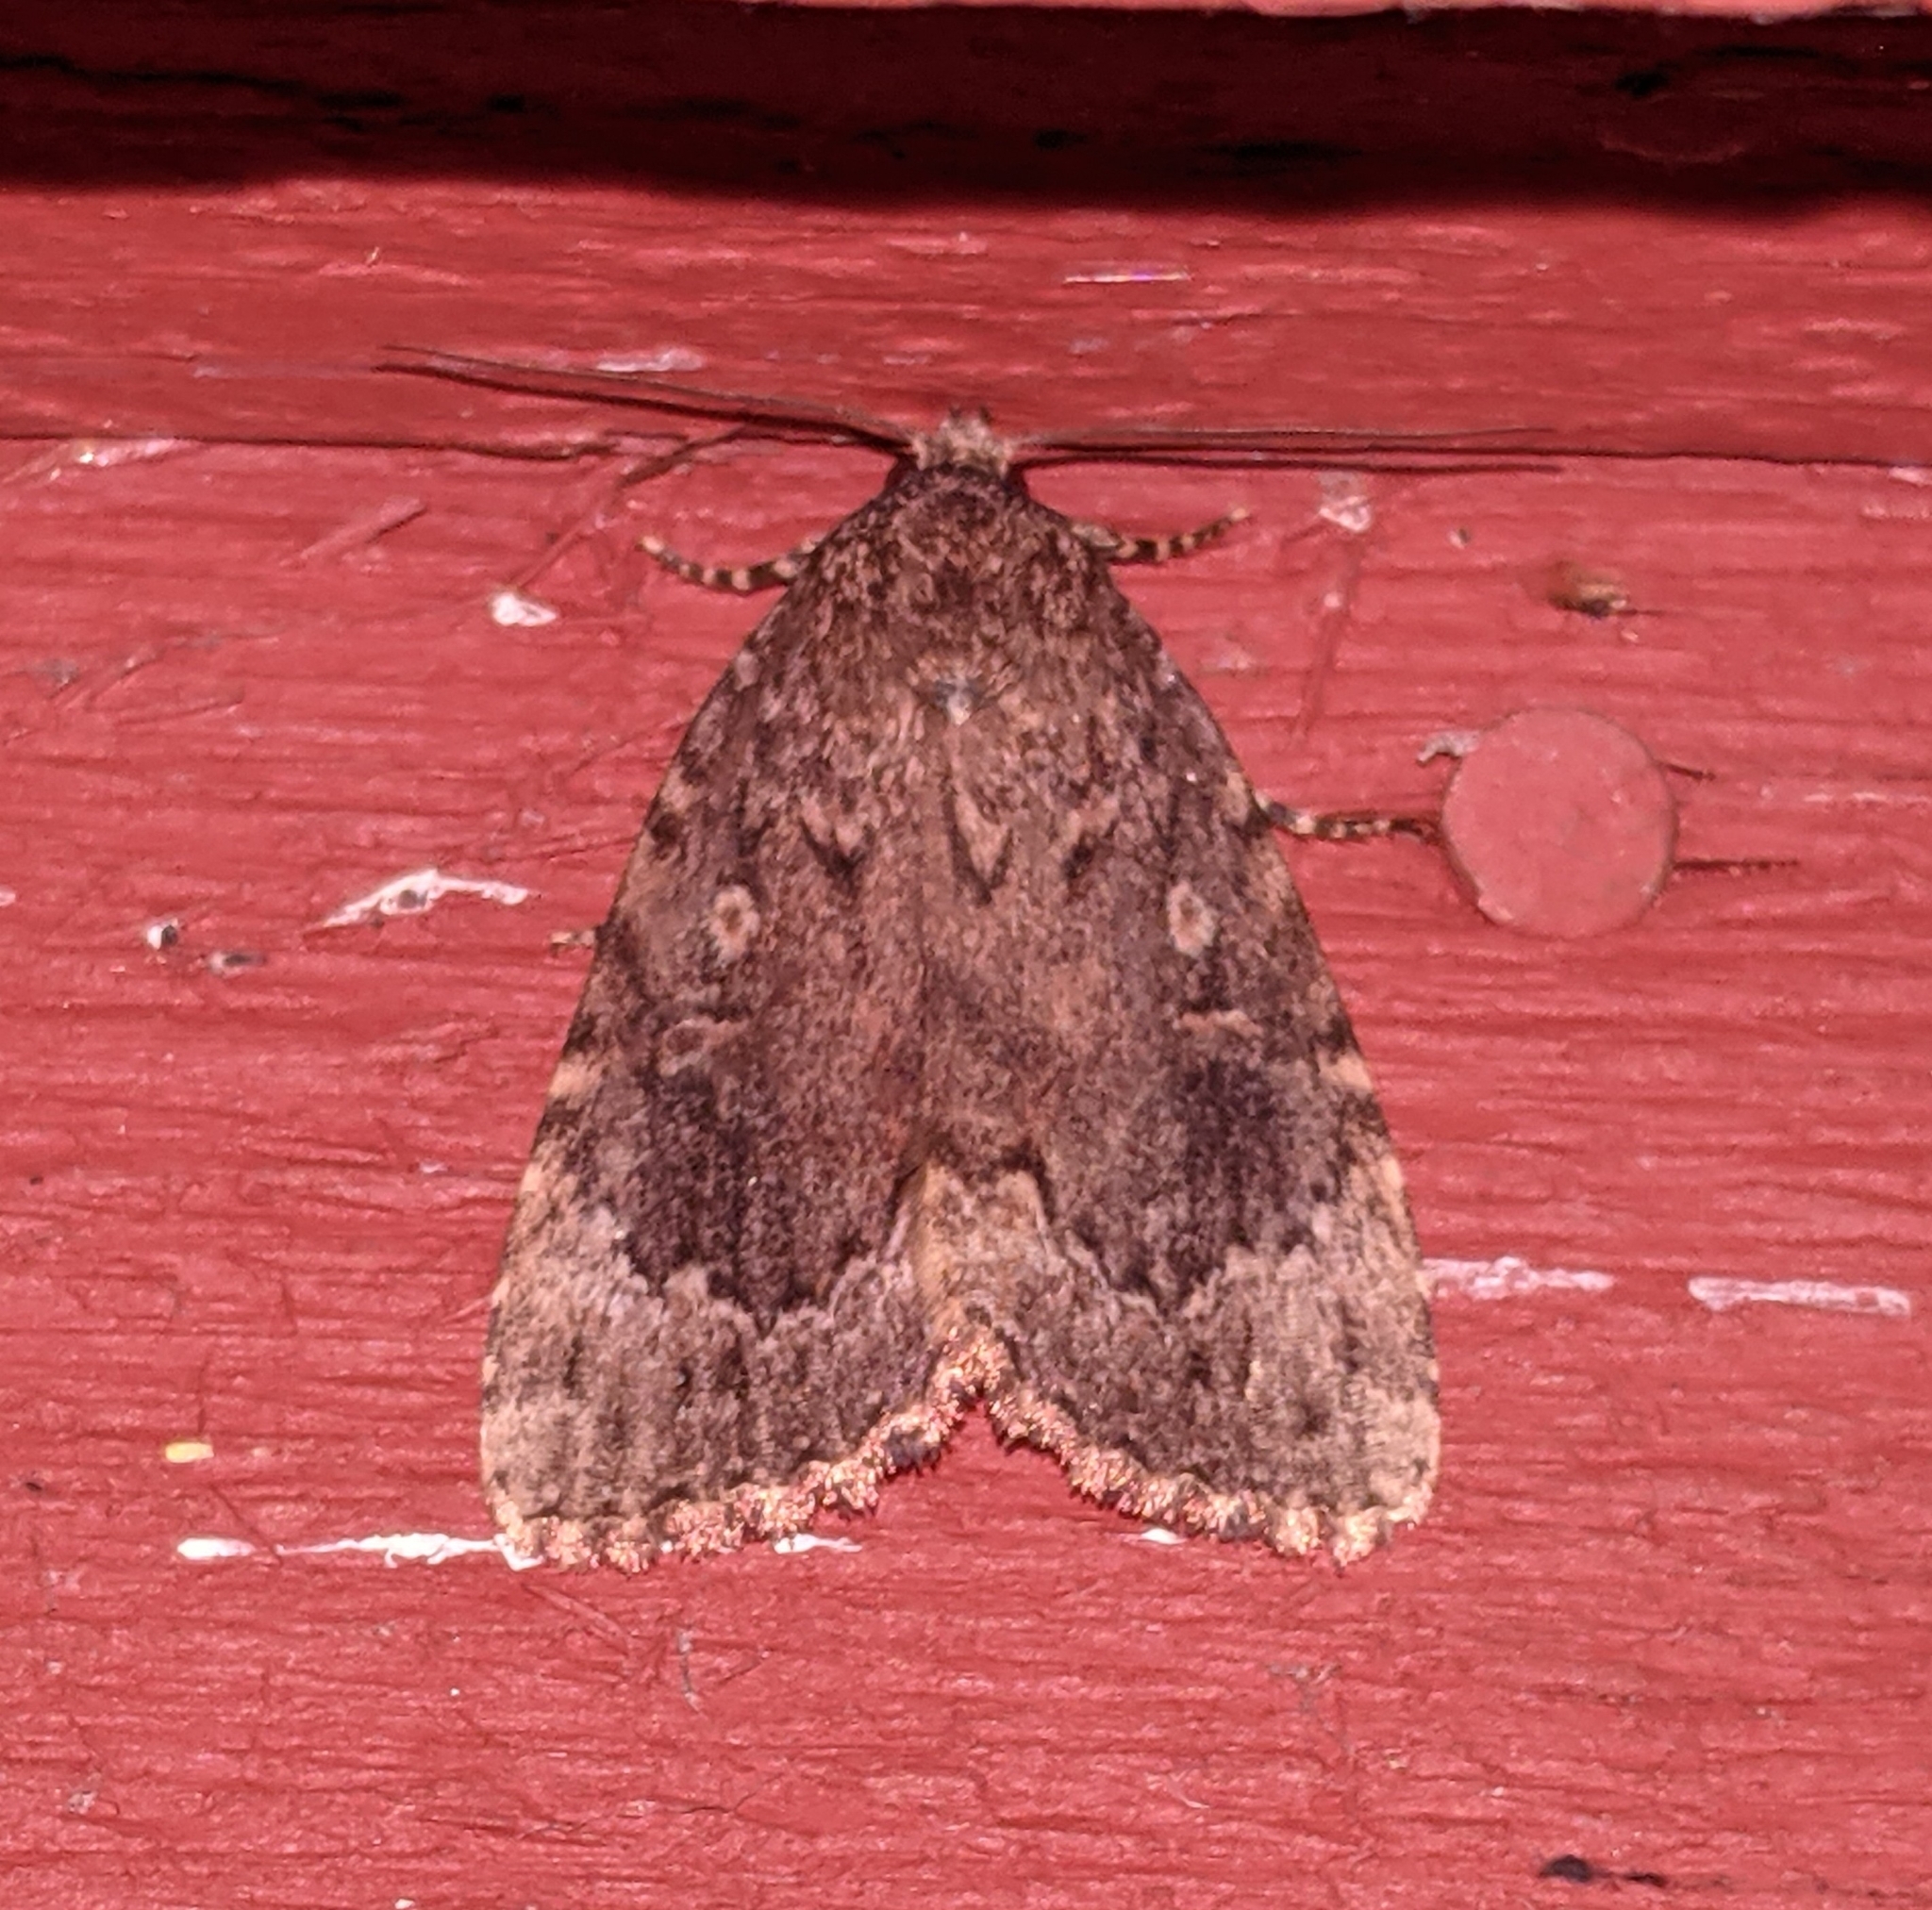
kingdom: Animalia
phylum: Arthropoda
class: Insecta
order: Lepidoptera
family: Noctuidae
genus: Amphipyra
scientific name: Amphipyra pyramidoides
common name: American copper underwing
